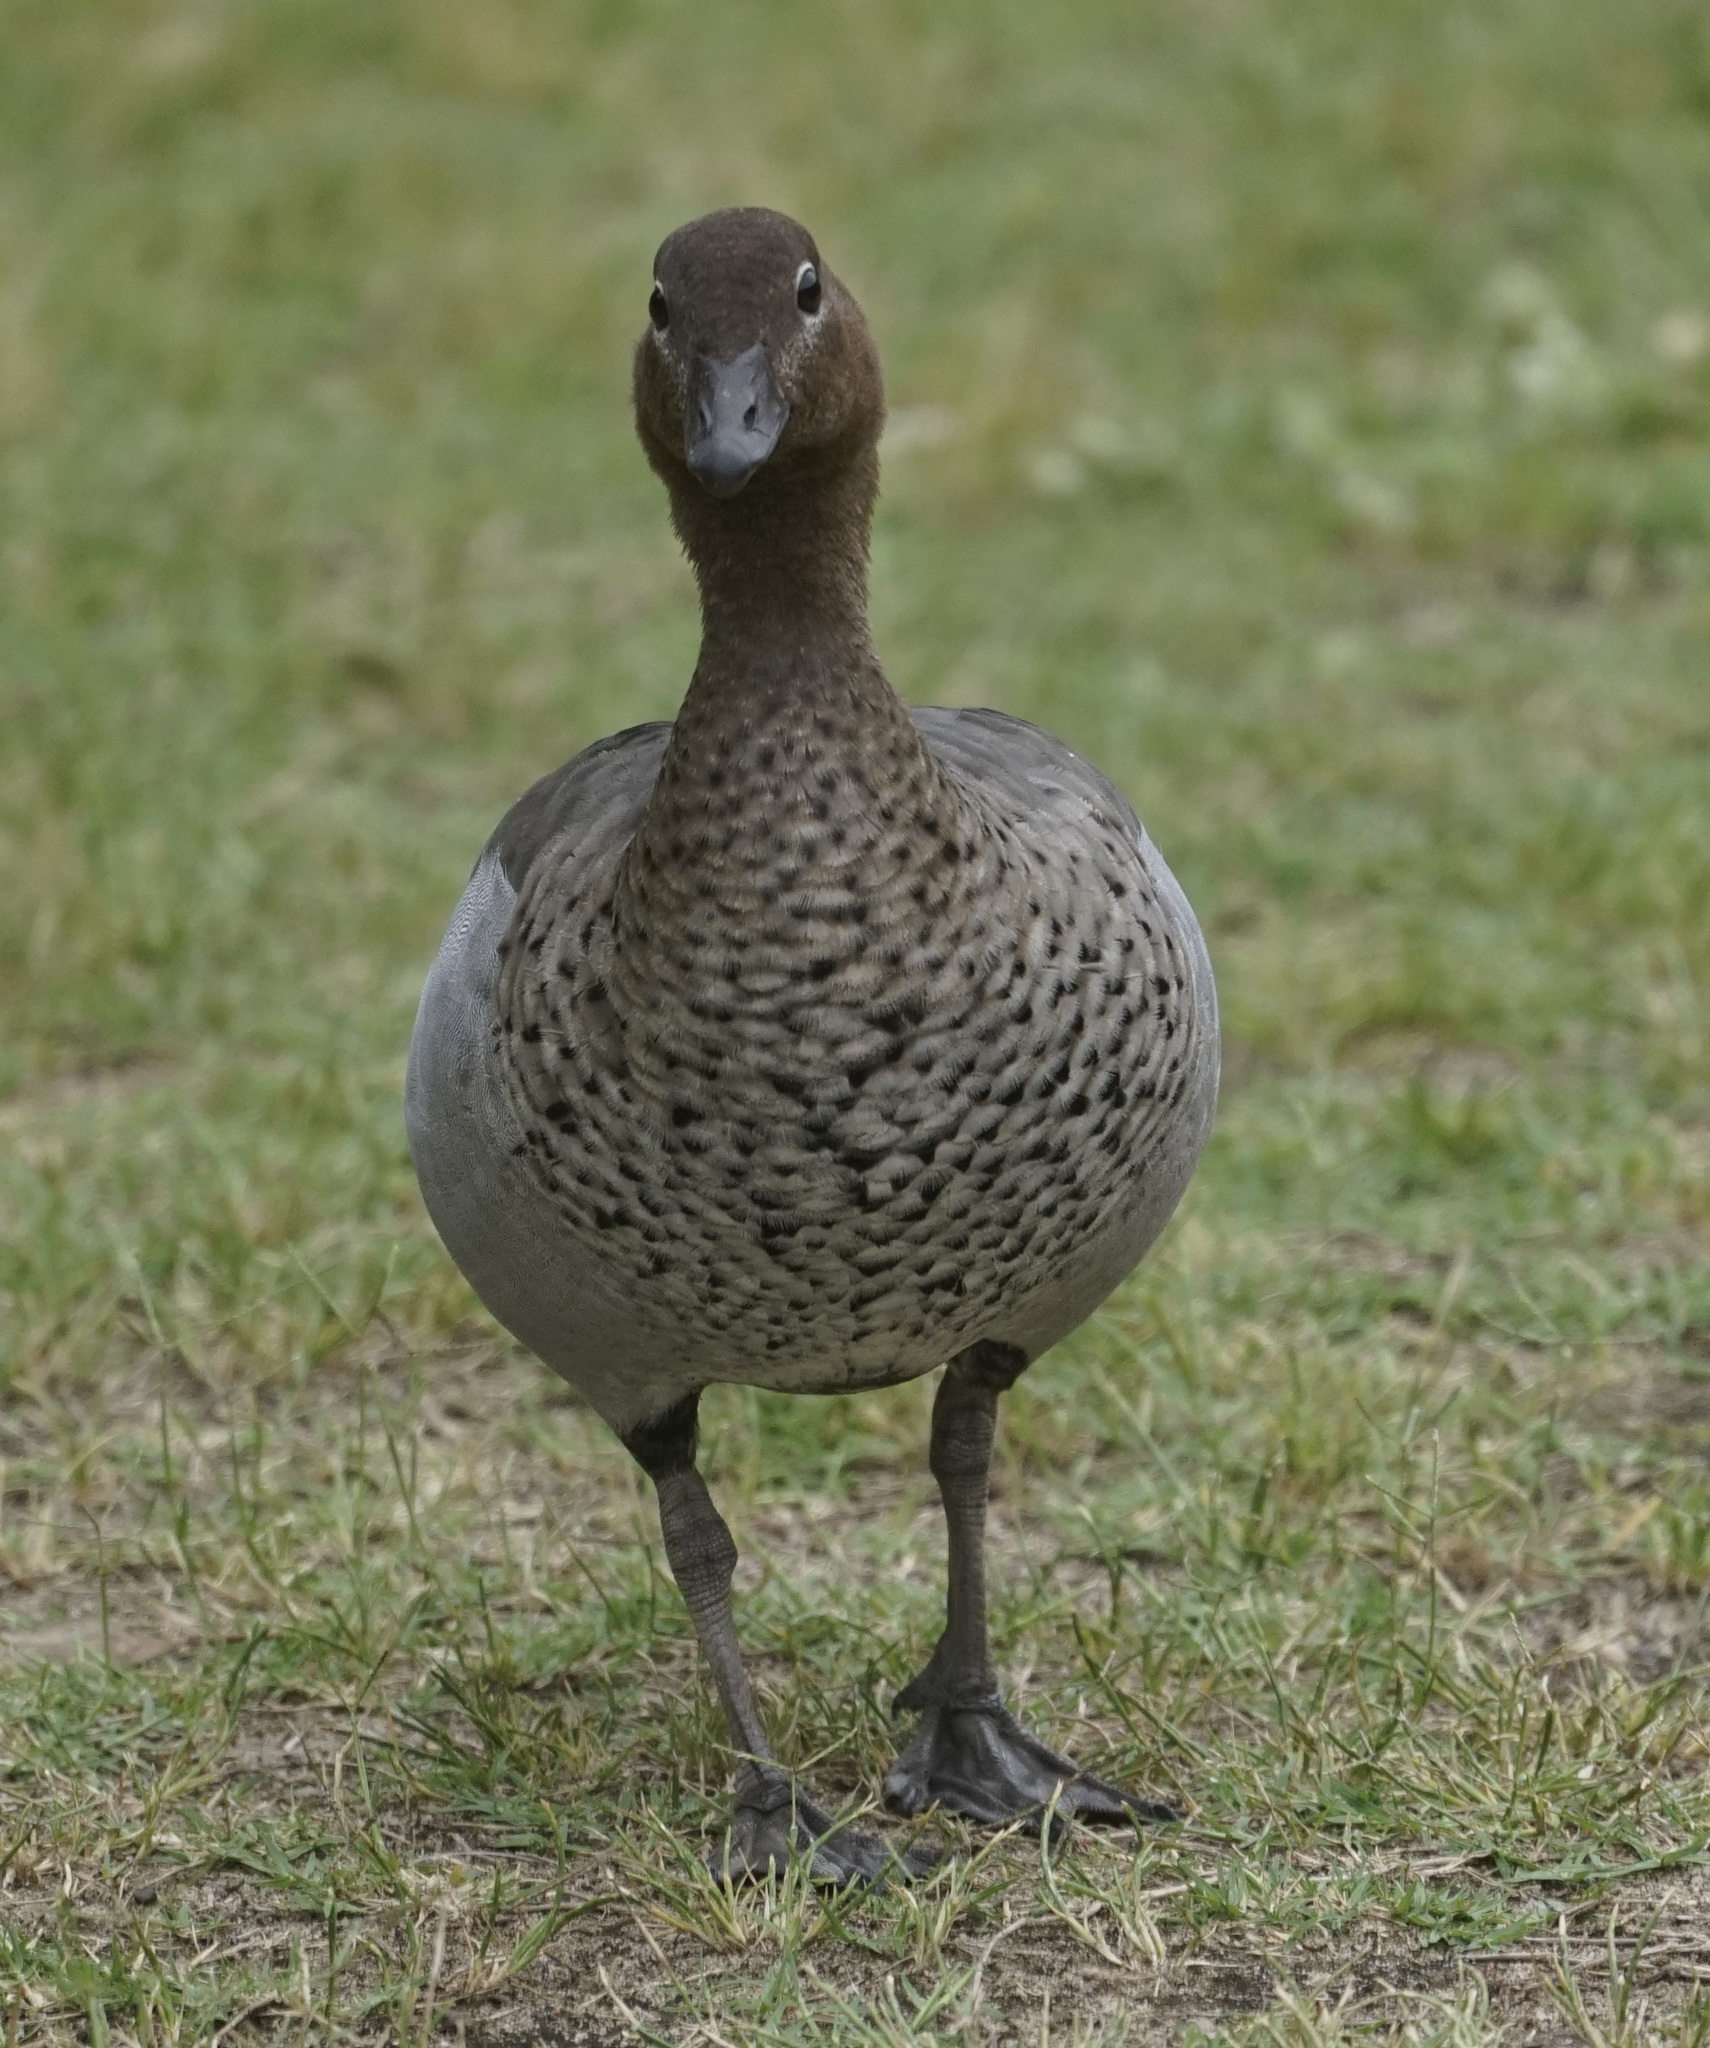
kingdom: Animalia
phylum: Chordata
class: Aves
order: Anseriformes
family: Anatidae
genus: Chenonetta
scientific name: Chenonetta jubata
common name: Maned duck
